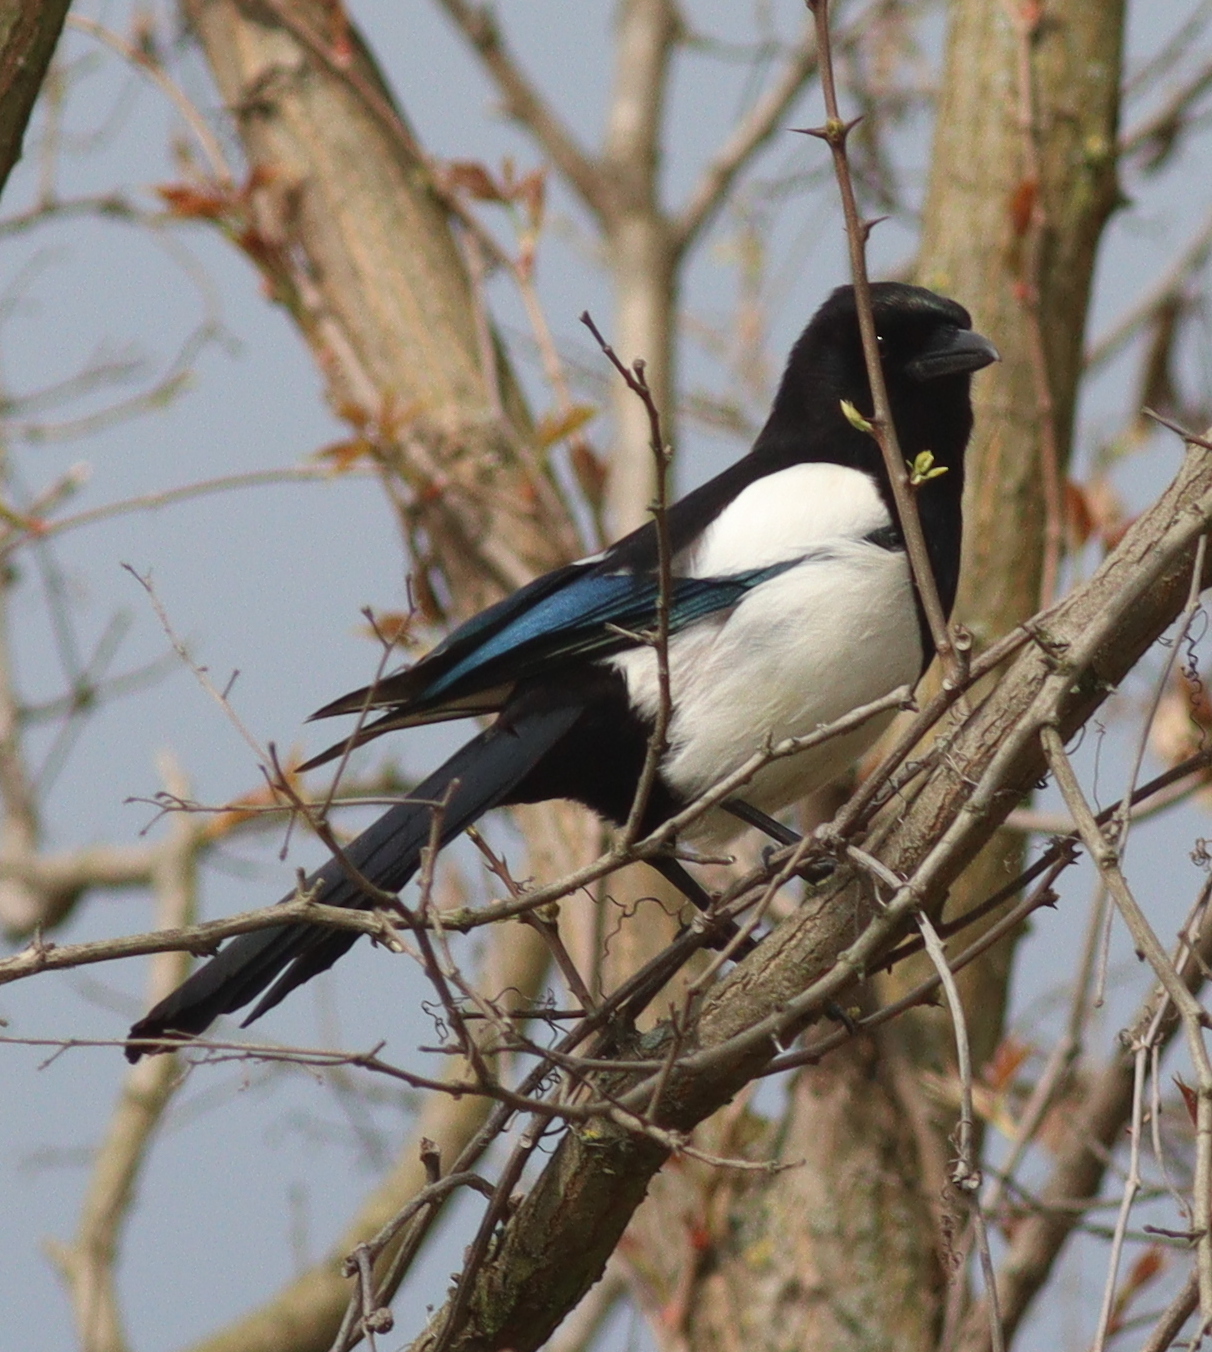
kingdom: Animalia
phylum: Chordata
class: Aves
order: Passeriformes
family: Corvidae
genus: Pica
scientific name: Pica pica
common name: Eurasian magpie
